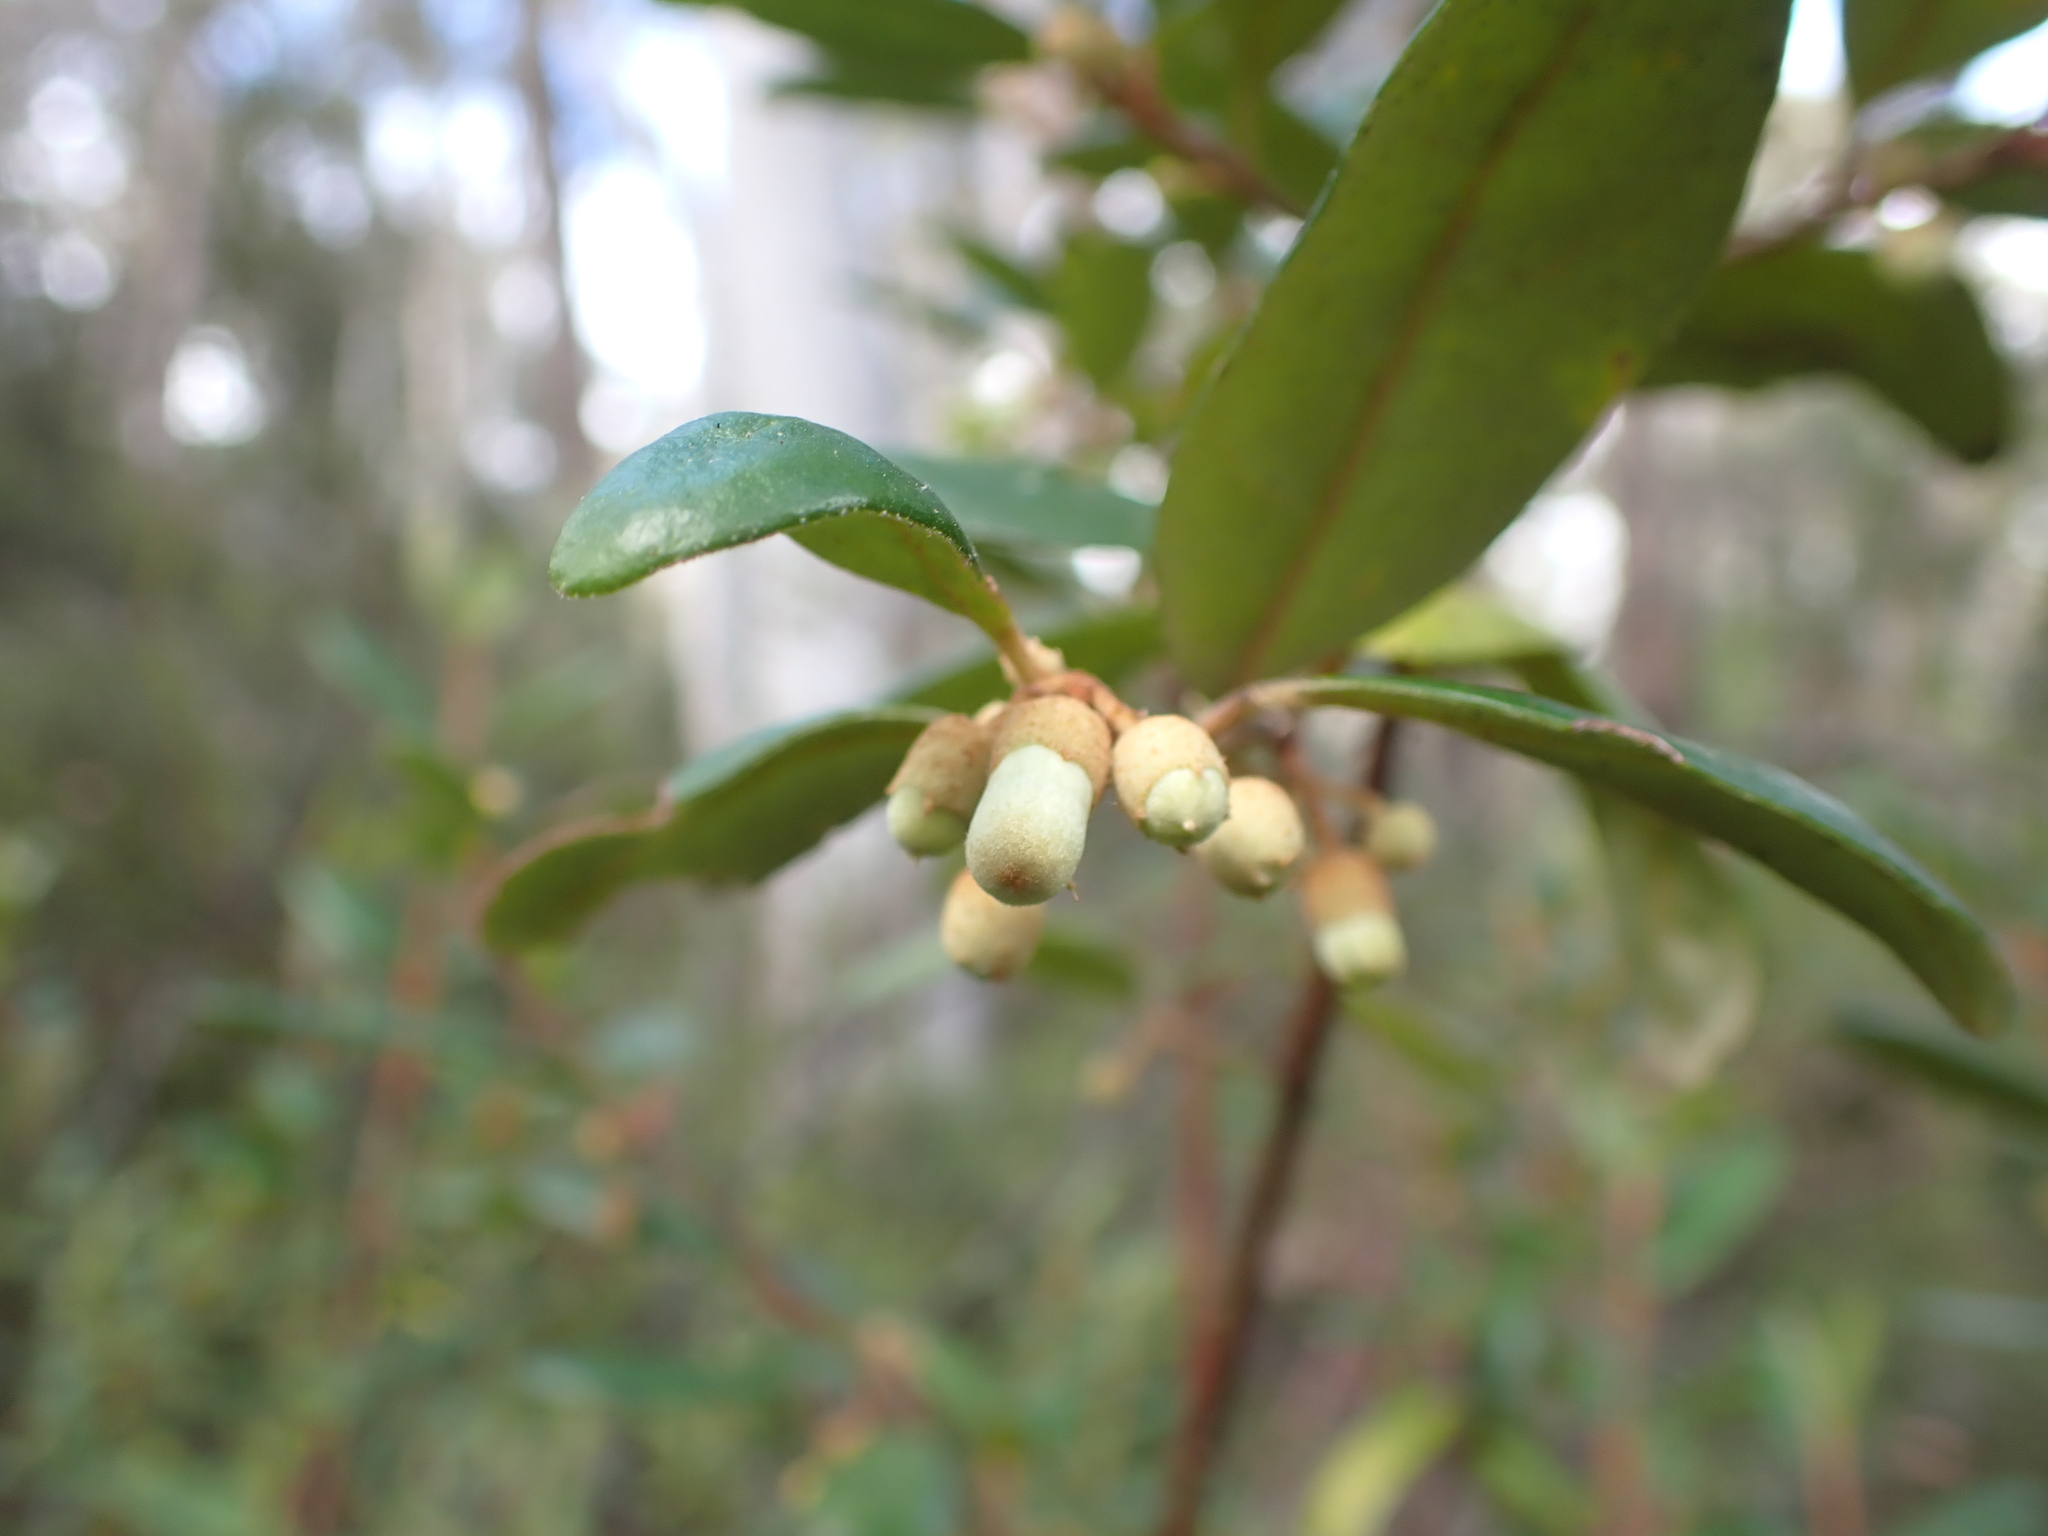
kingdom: Plantae
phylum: Tracheophyta
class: Magnoliopsida
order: Sapindales
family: Rutaceae
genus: Correa
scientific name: Correa lawrenceana
